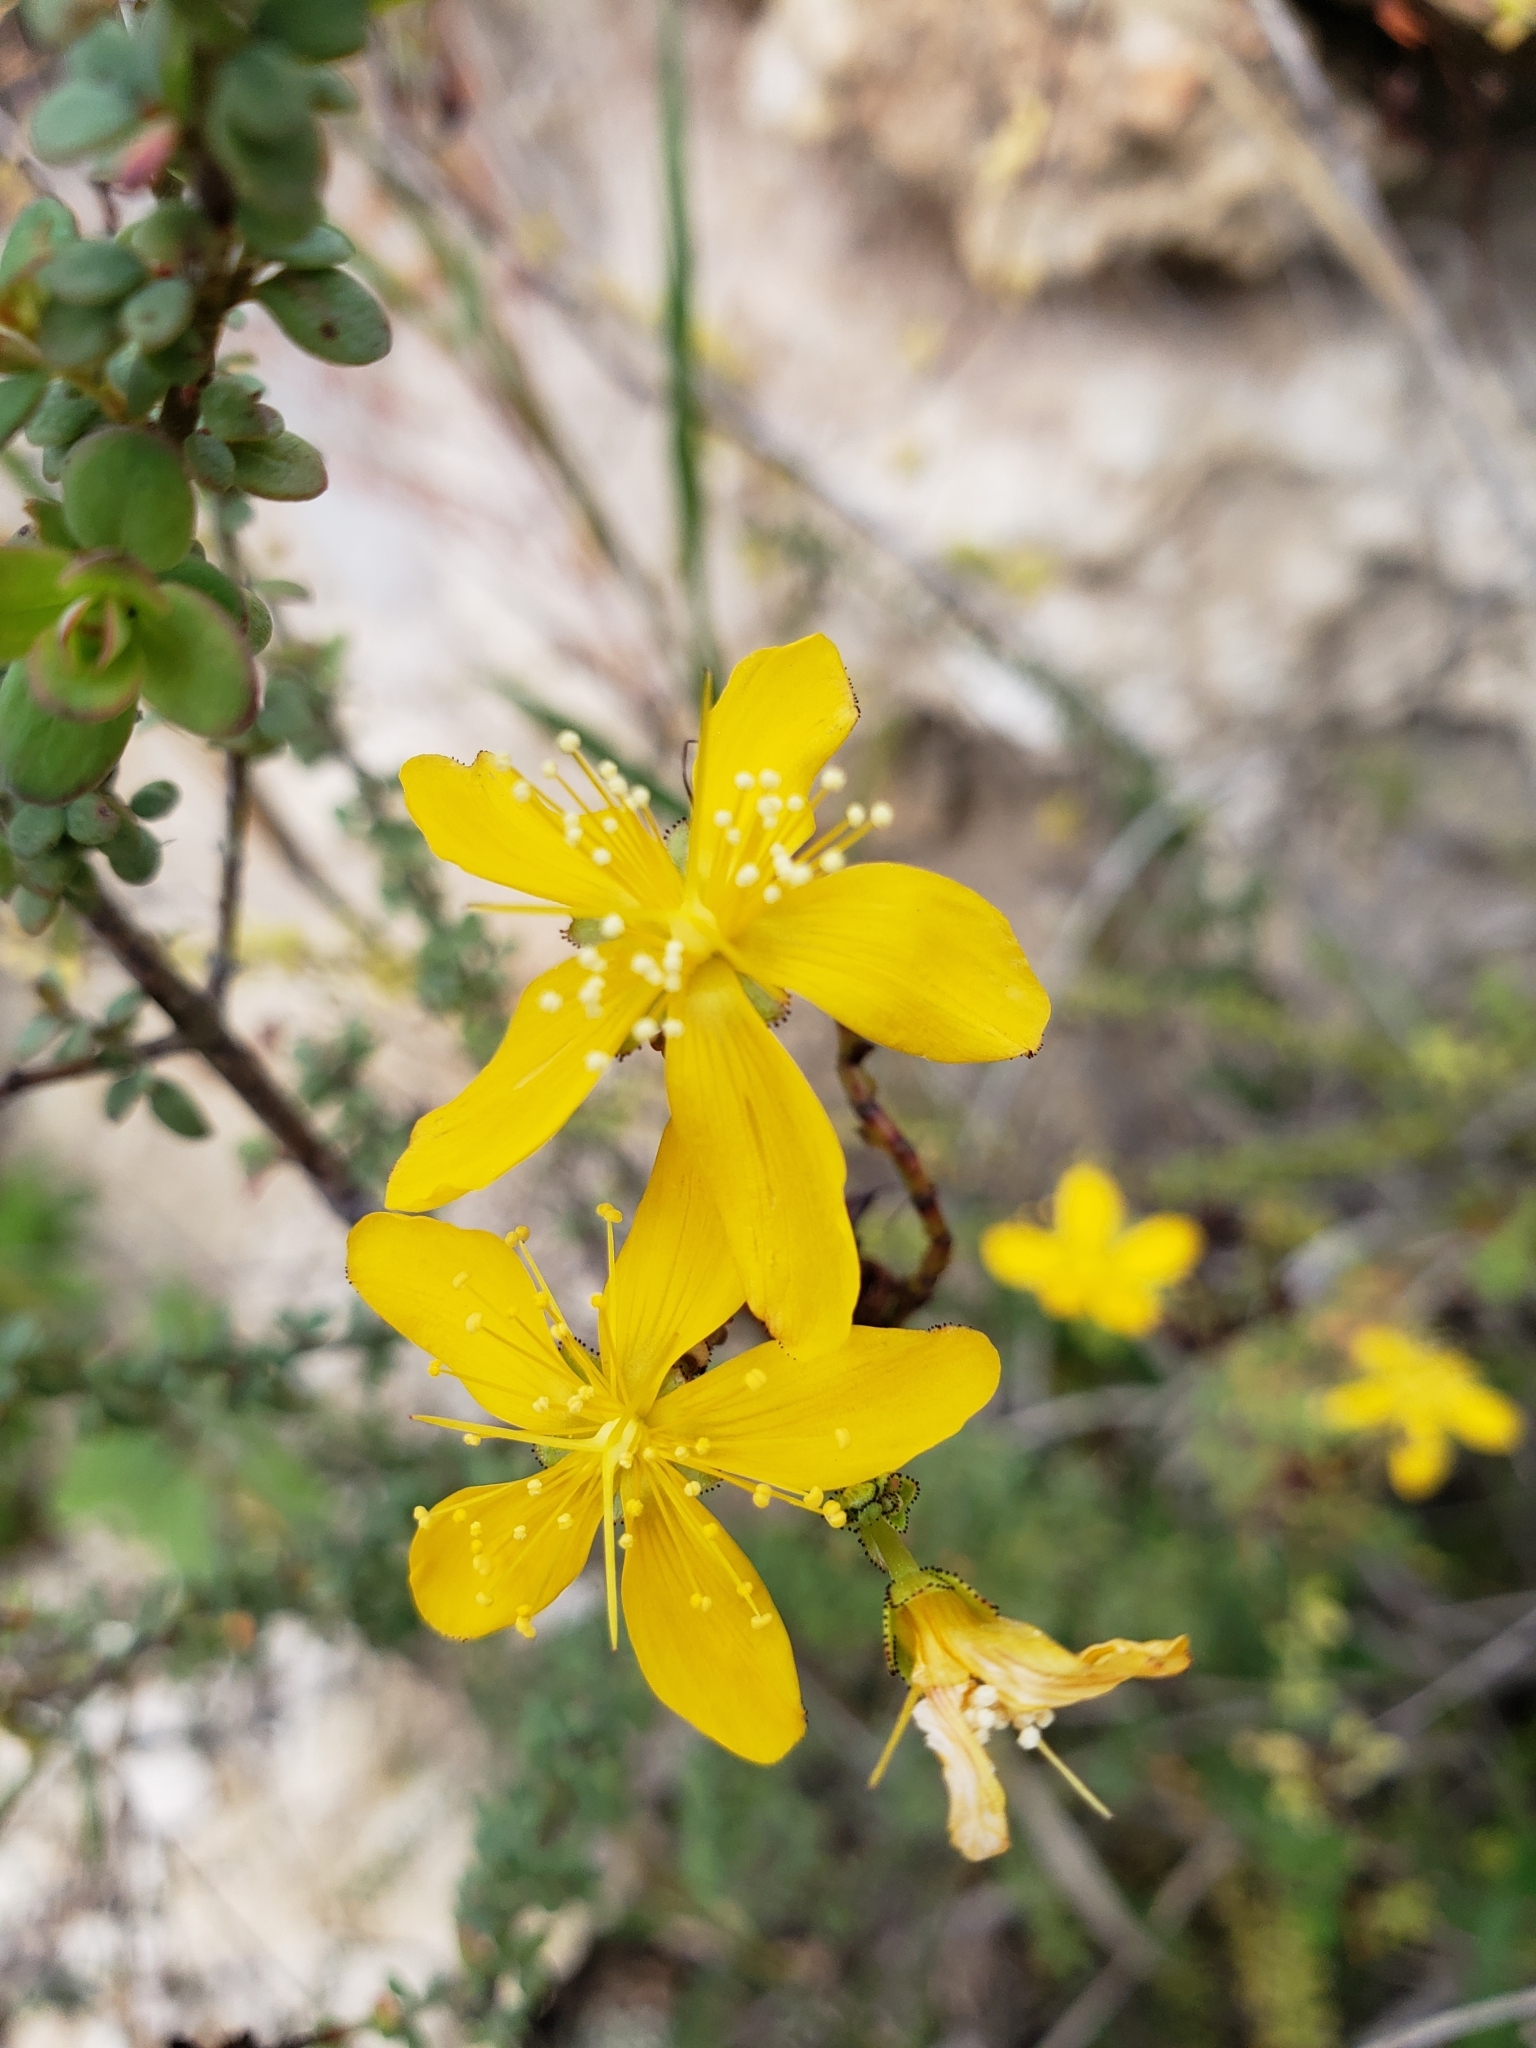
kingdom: Plantae
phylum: Tracheophyta
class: Magnoliopsida
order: Malpighiales
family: Hypericaceae
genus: Hypericum
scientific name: Hypericum thymifolium
